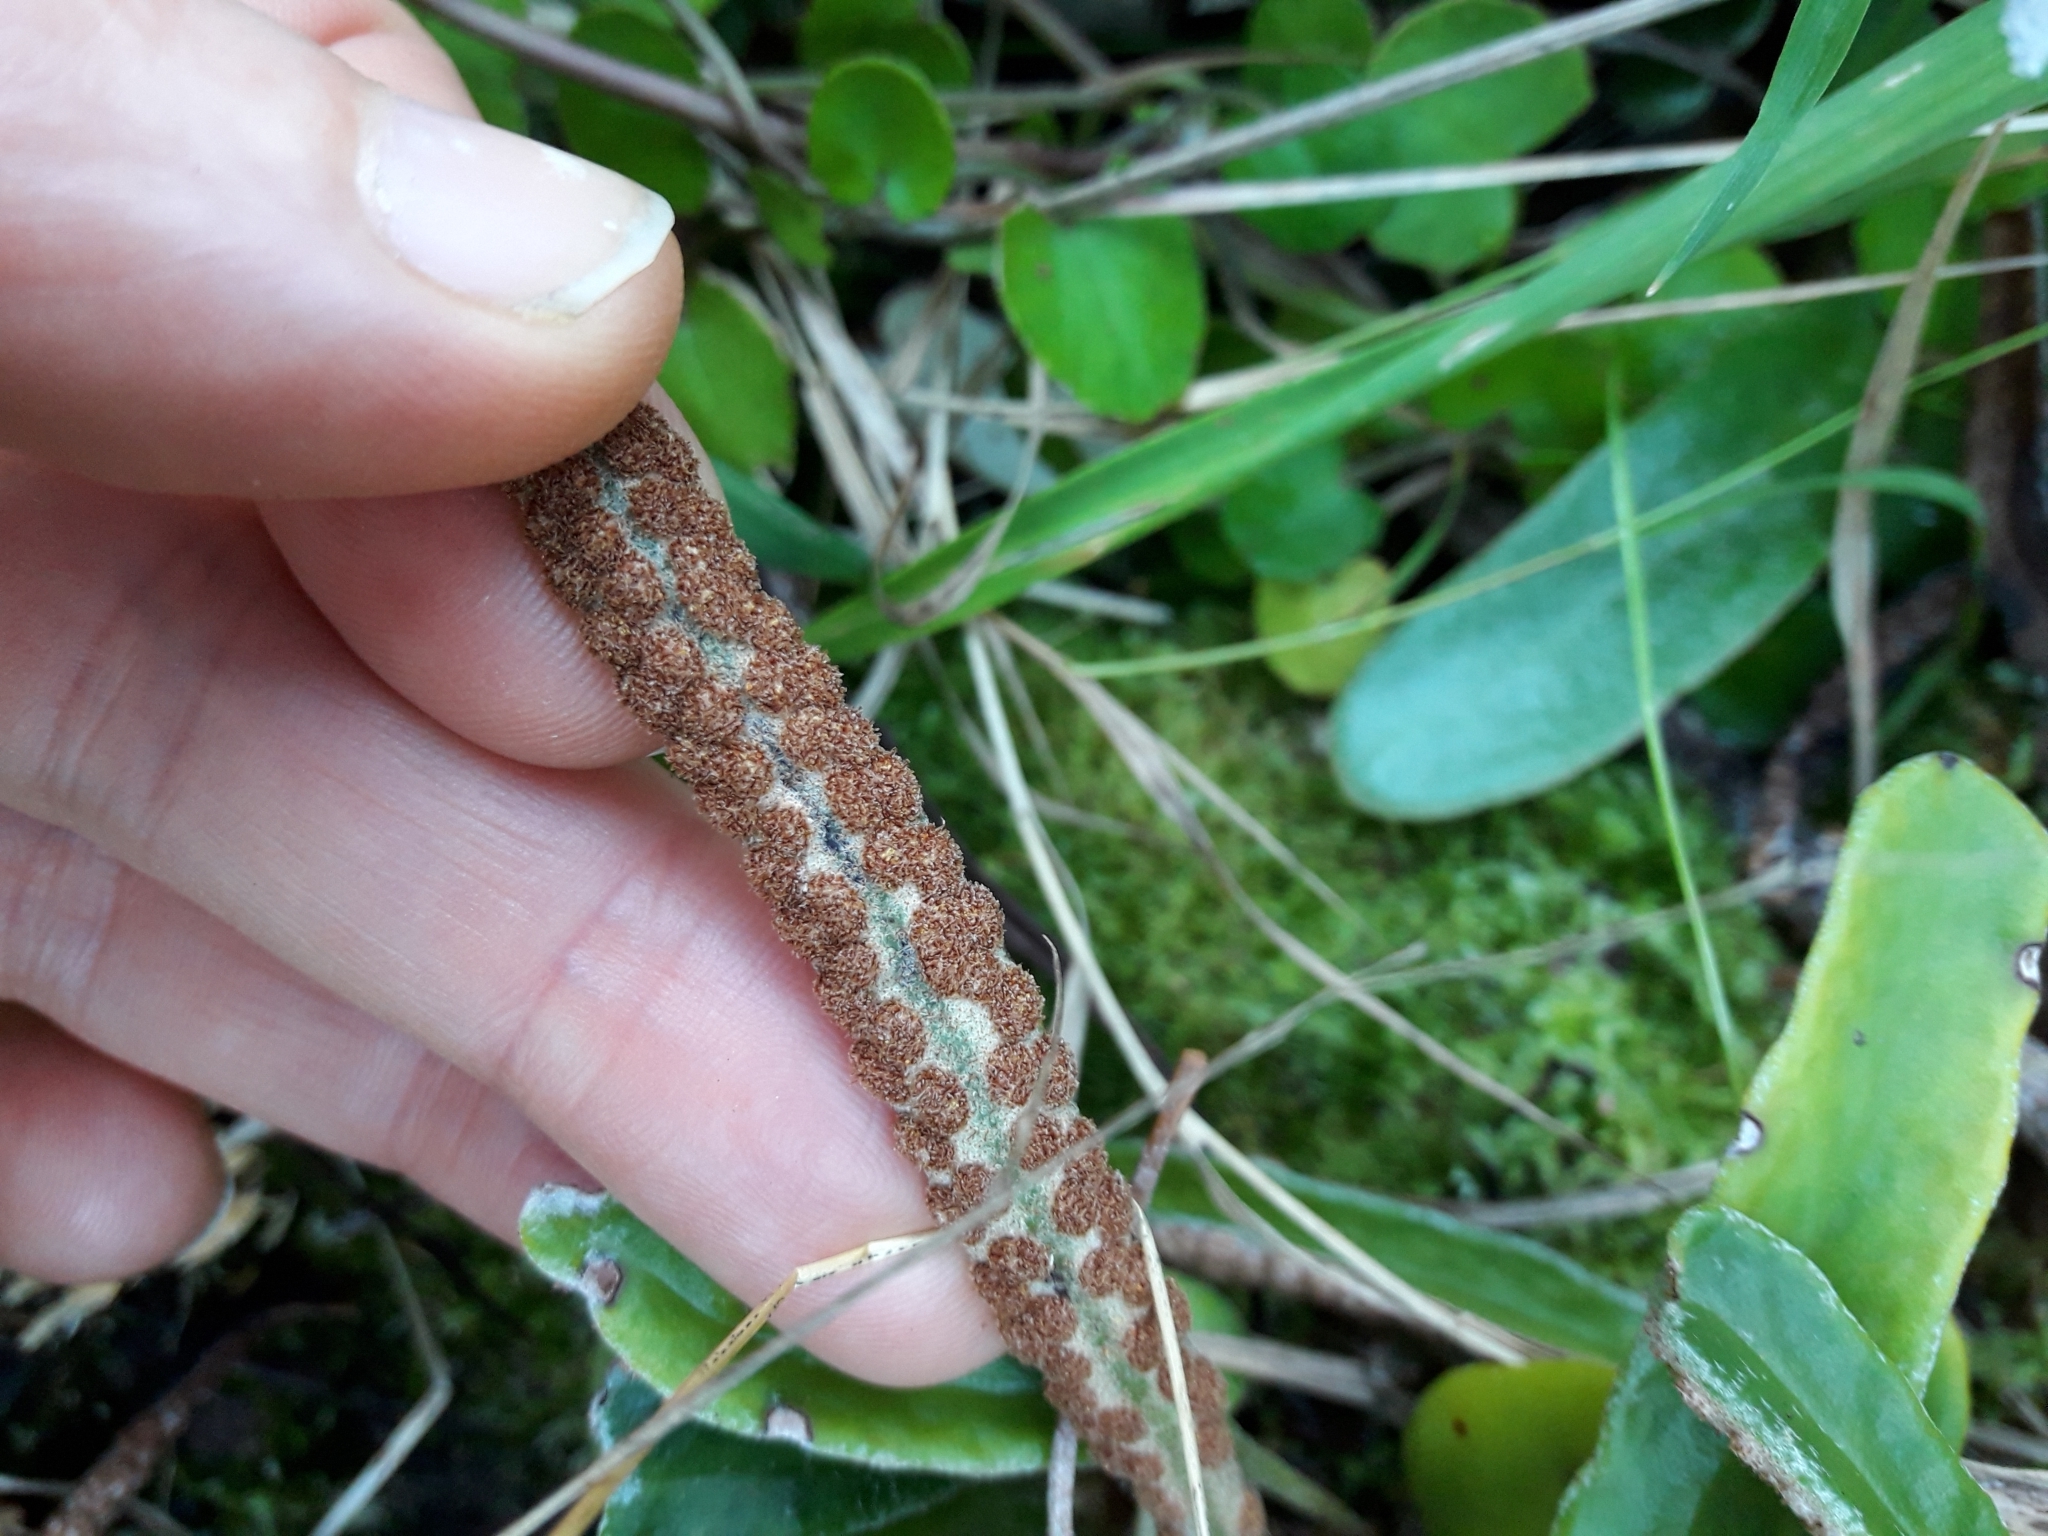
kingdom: Plantae
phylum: Tracheophyta
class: Polypodiopsida
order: Polypodiales
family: Polypodiaceae
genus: Pyrrosia
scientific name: Pyrrosia eleagnifolia
